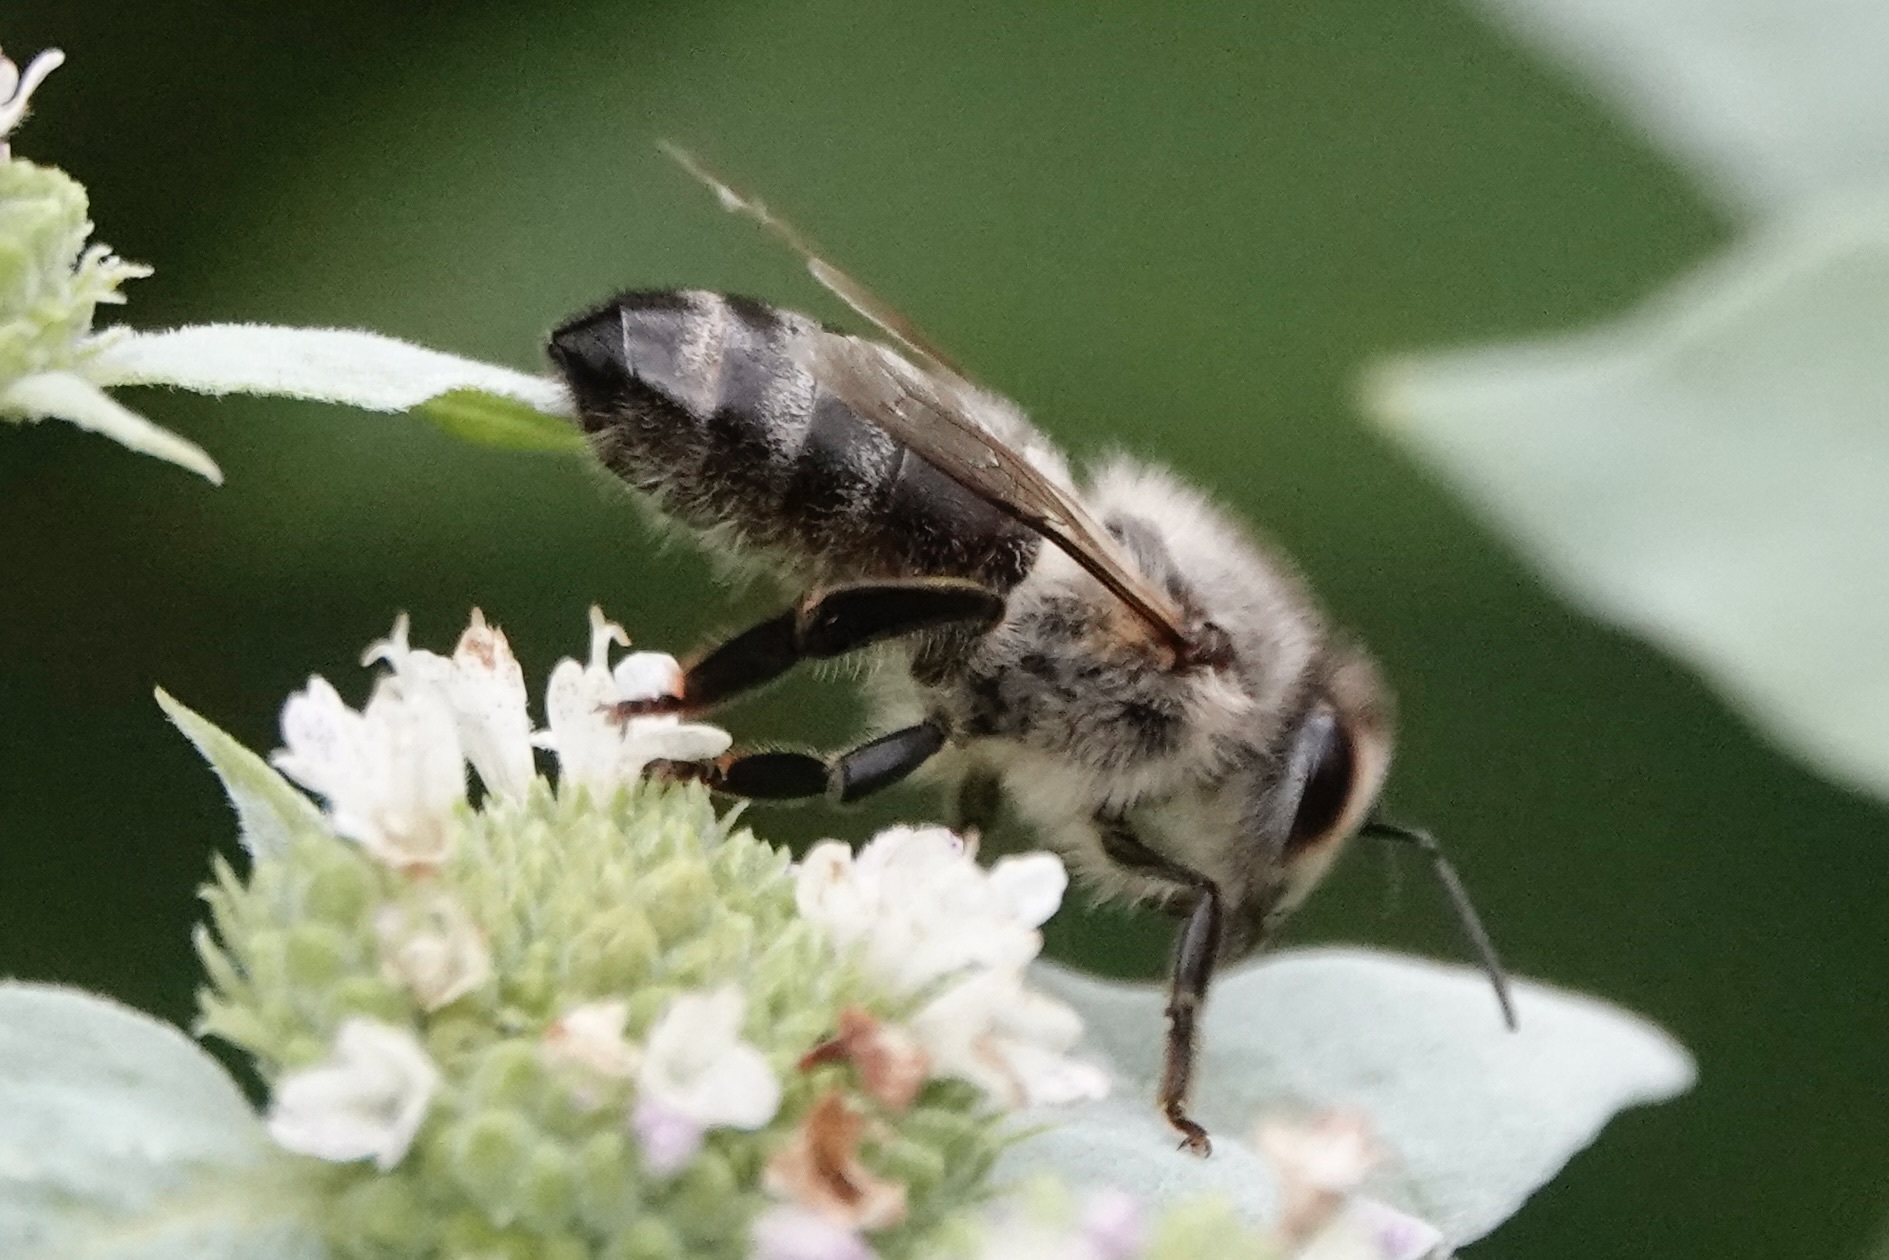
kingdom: Animalia
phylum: Arthropoda
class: Insecta
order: Hymenoptera
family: Apidae
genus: Apis
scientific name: Apis mellifera
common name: Honey bee
